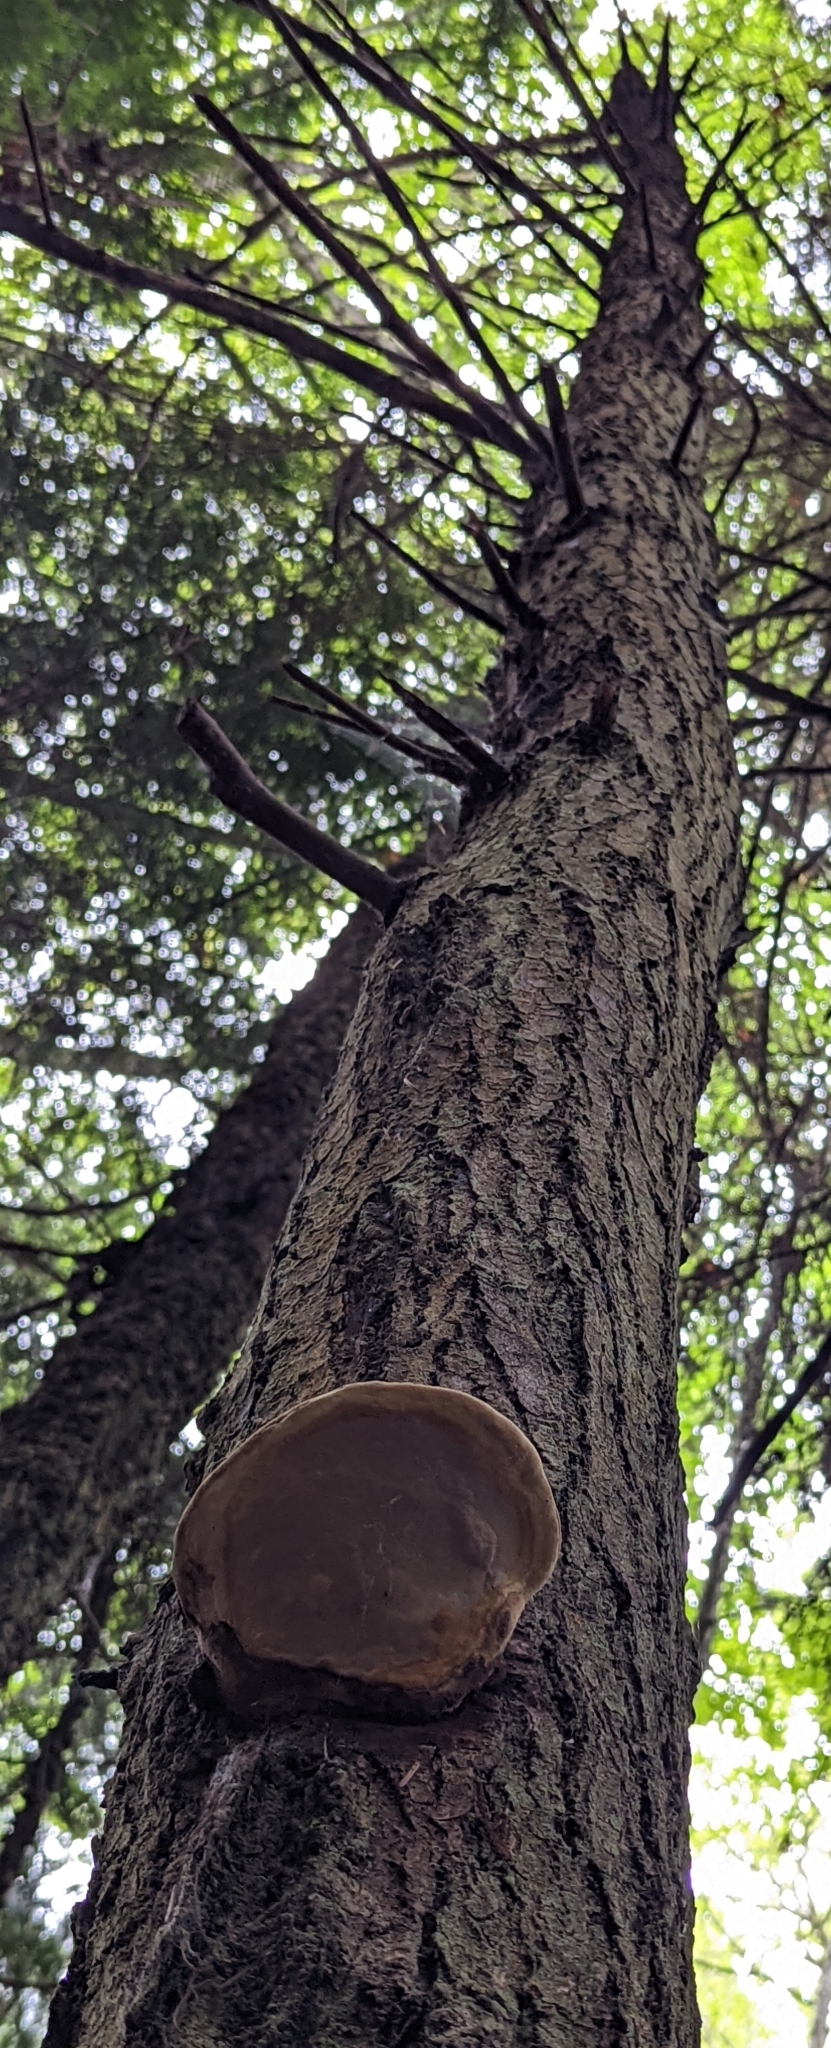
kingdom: Fungi
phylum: Basidiomycota
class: Agaricomycetes
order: Polyporales
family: Fomitopsidaceae
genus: Fomitopsis
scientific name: Fomitopsis mounceae
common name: Northern red belt
